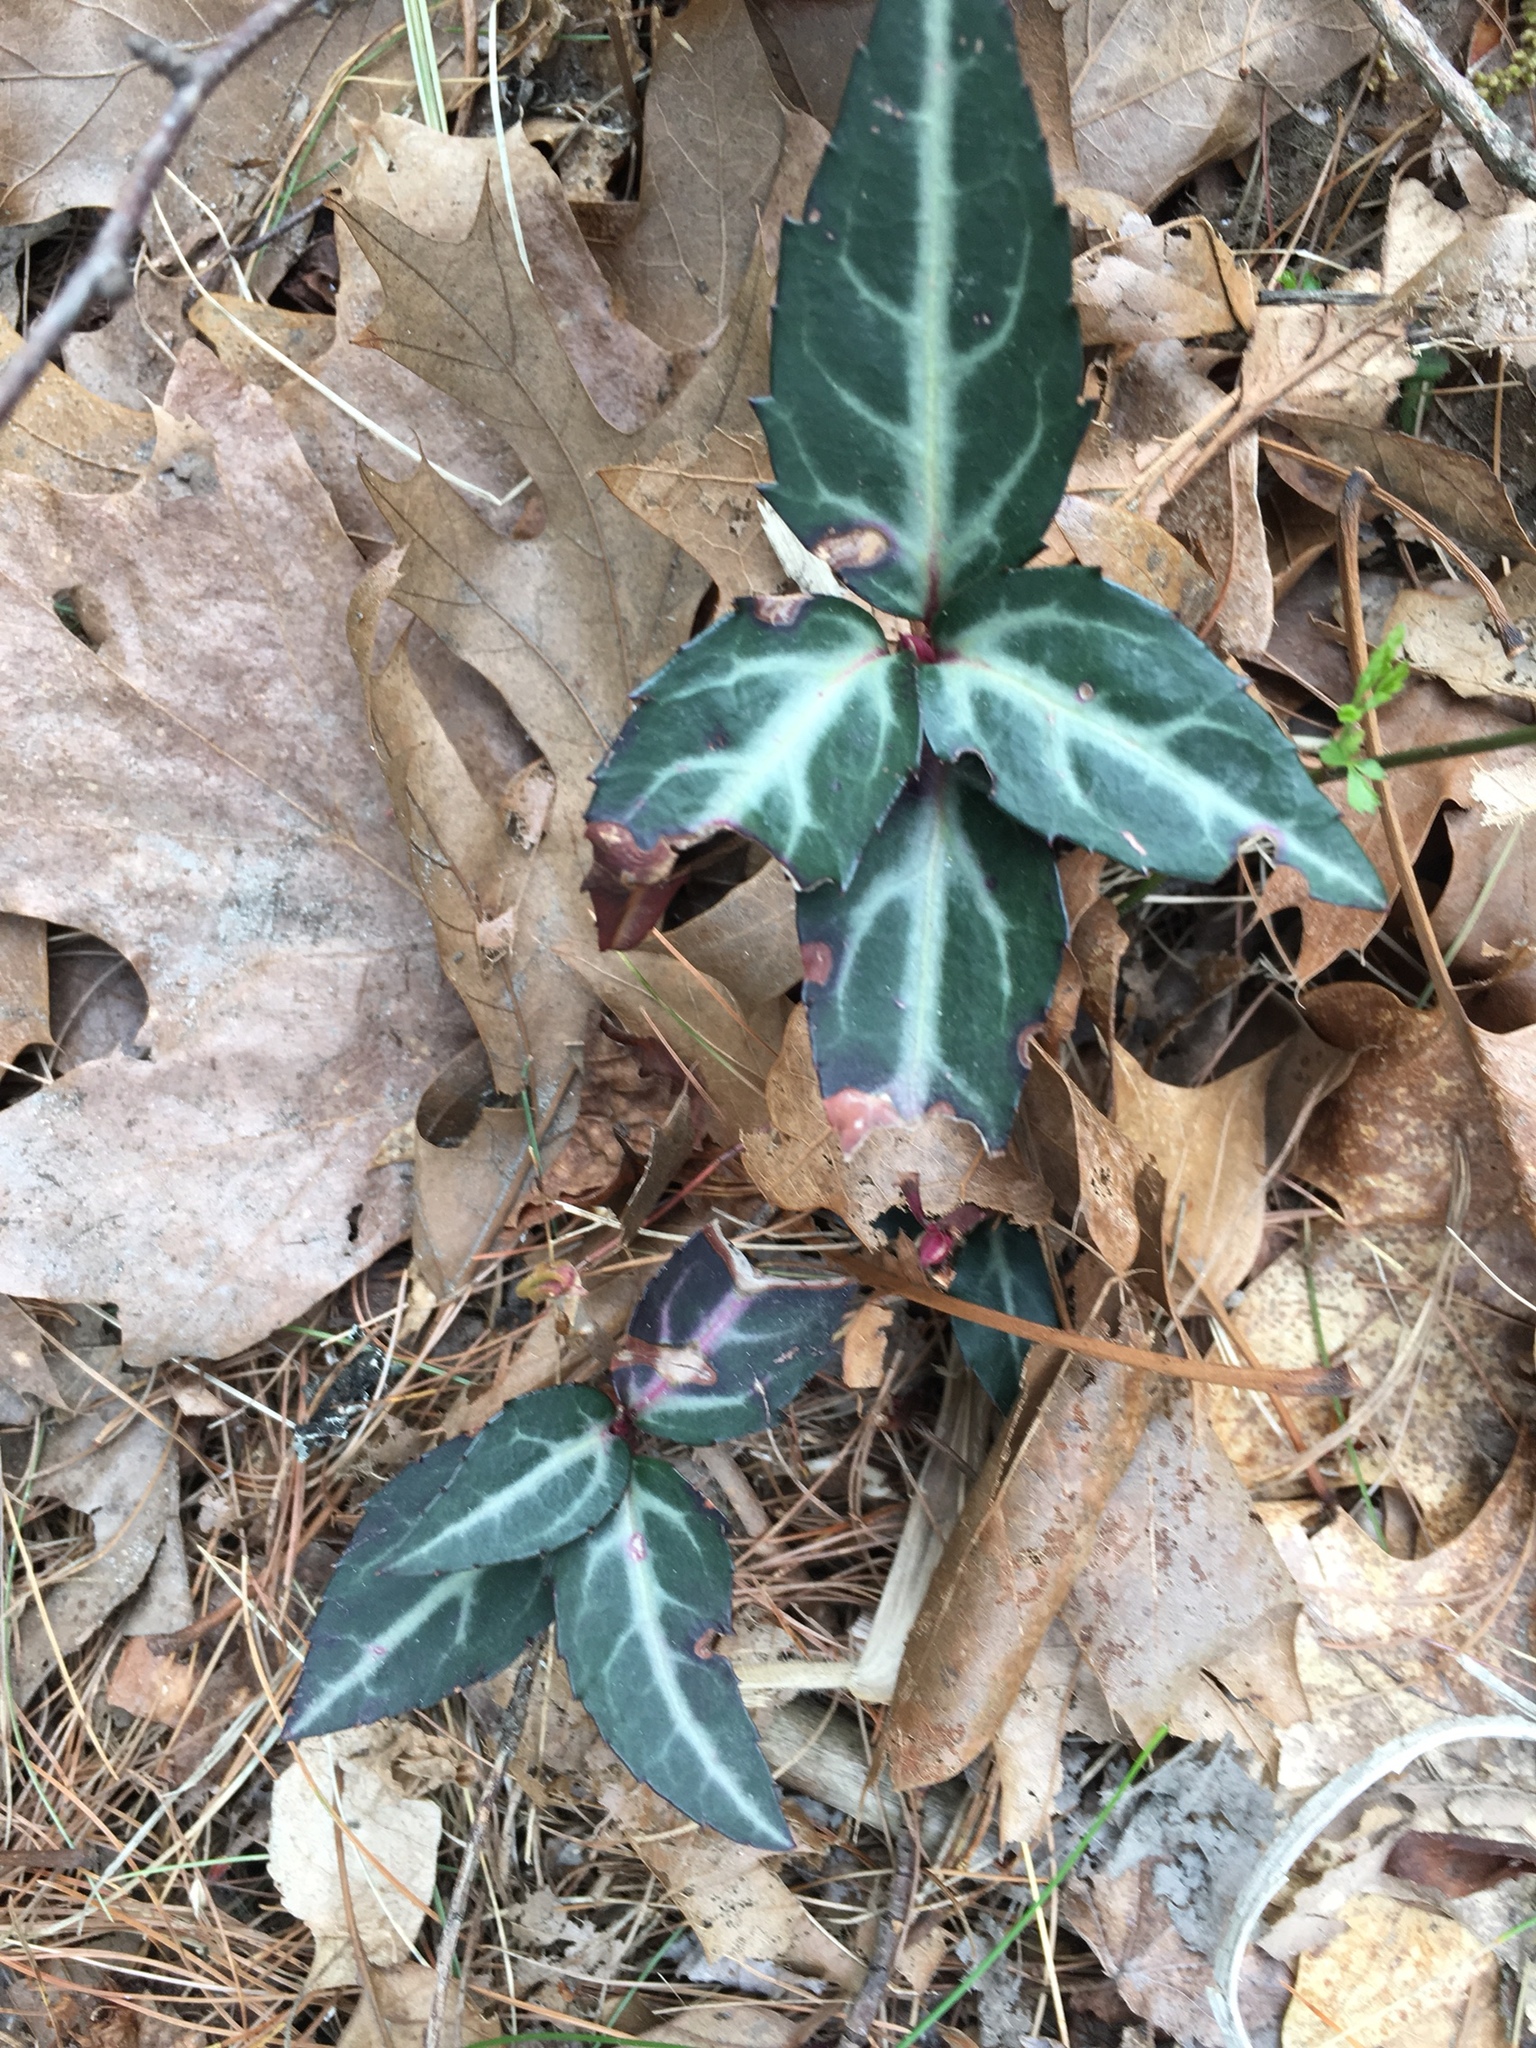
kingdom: Plantae
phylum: Tracheophyta
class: Magnoliopsida
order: Ericales
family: Ericaceae
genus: Chimaphila
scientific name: Chimaphila maculata
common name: Spotted pipsissewa
